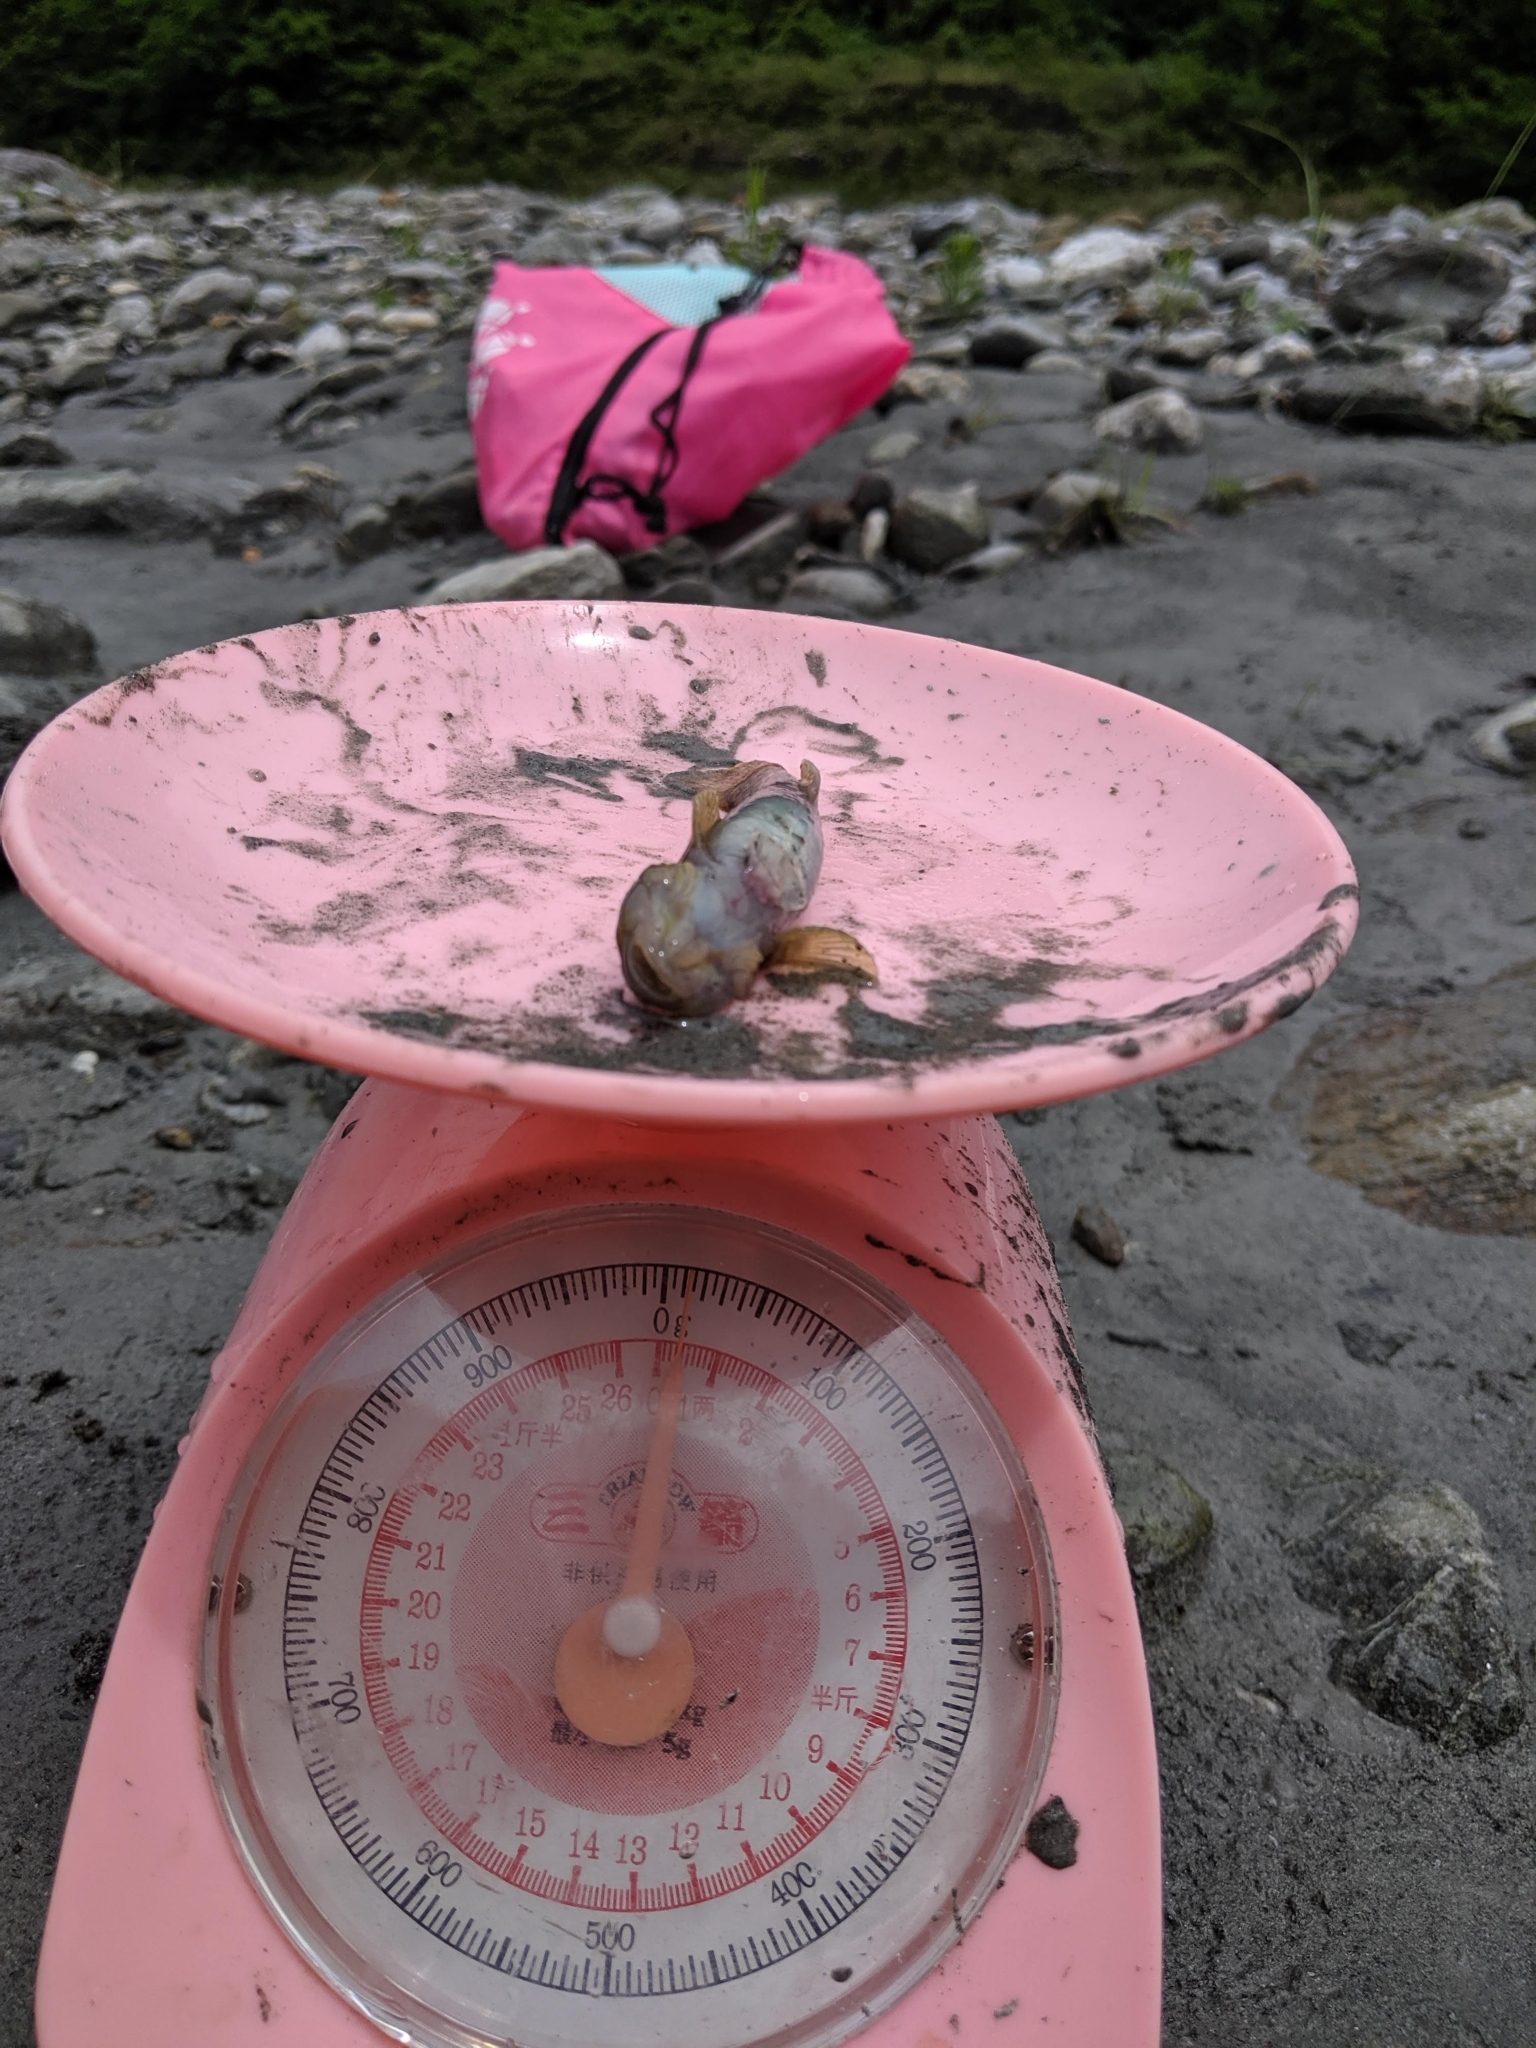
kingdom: Animalia
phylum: Chordata
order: Perciformes
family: Gobiidae
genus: Rhinogobius
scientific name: Rhinogobius gigas
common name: Amur goby
